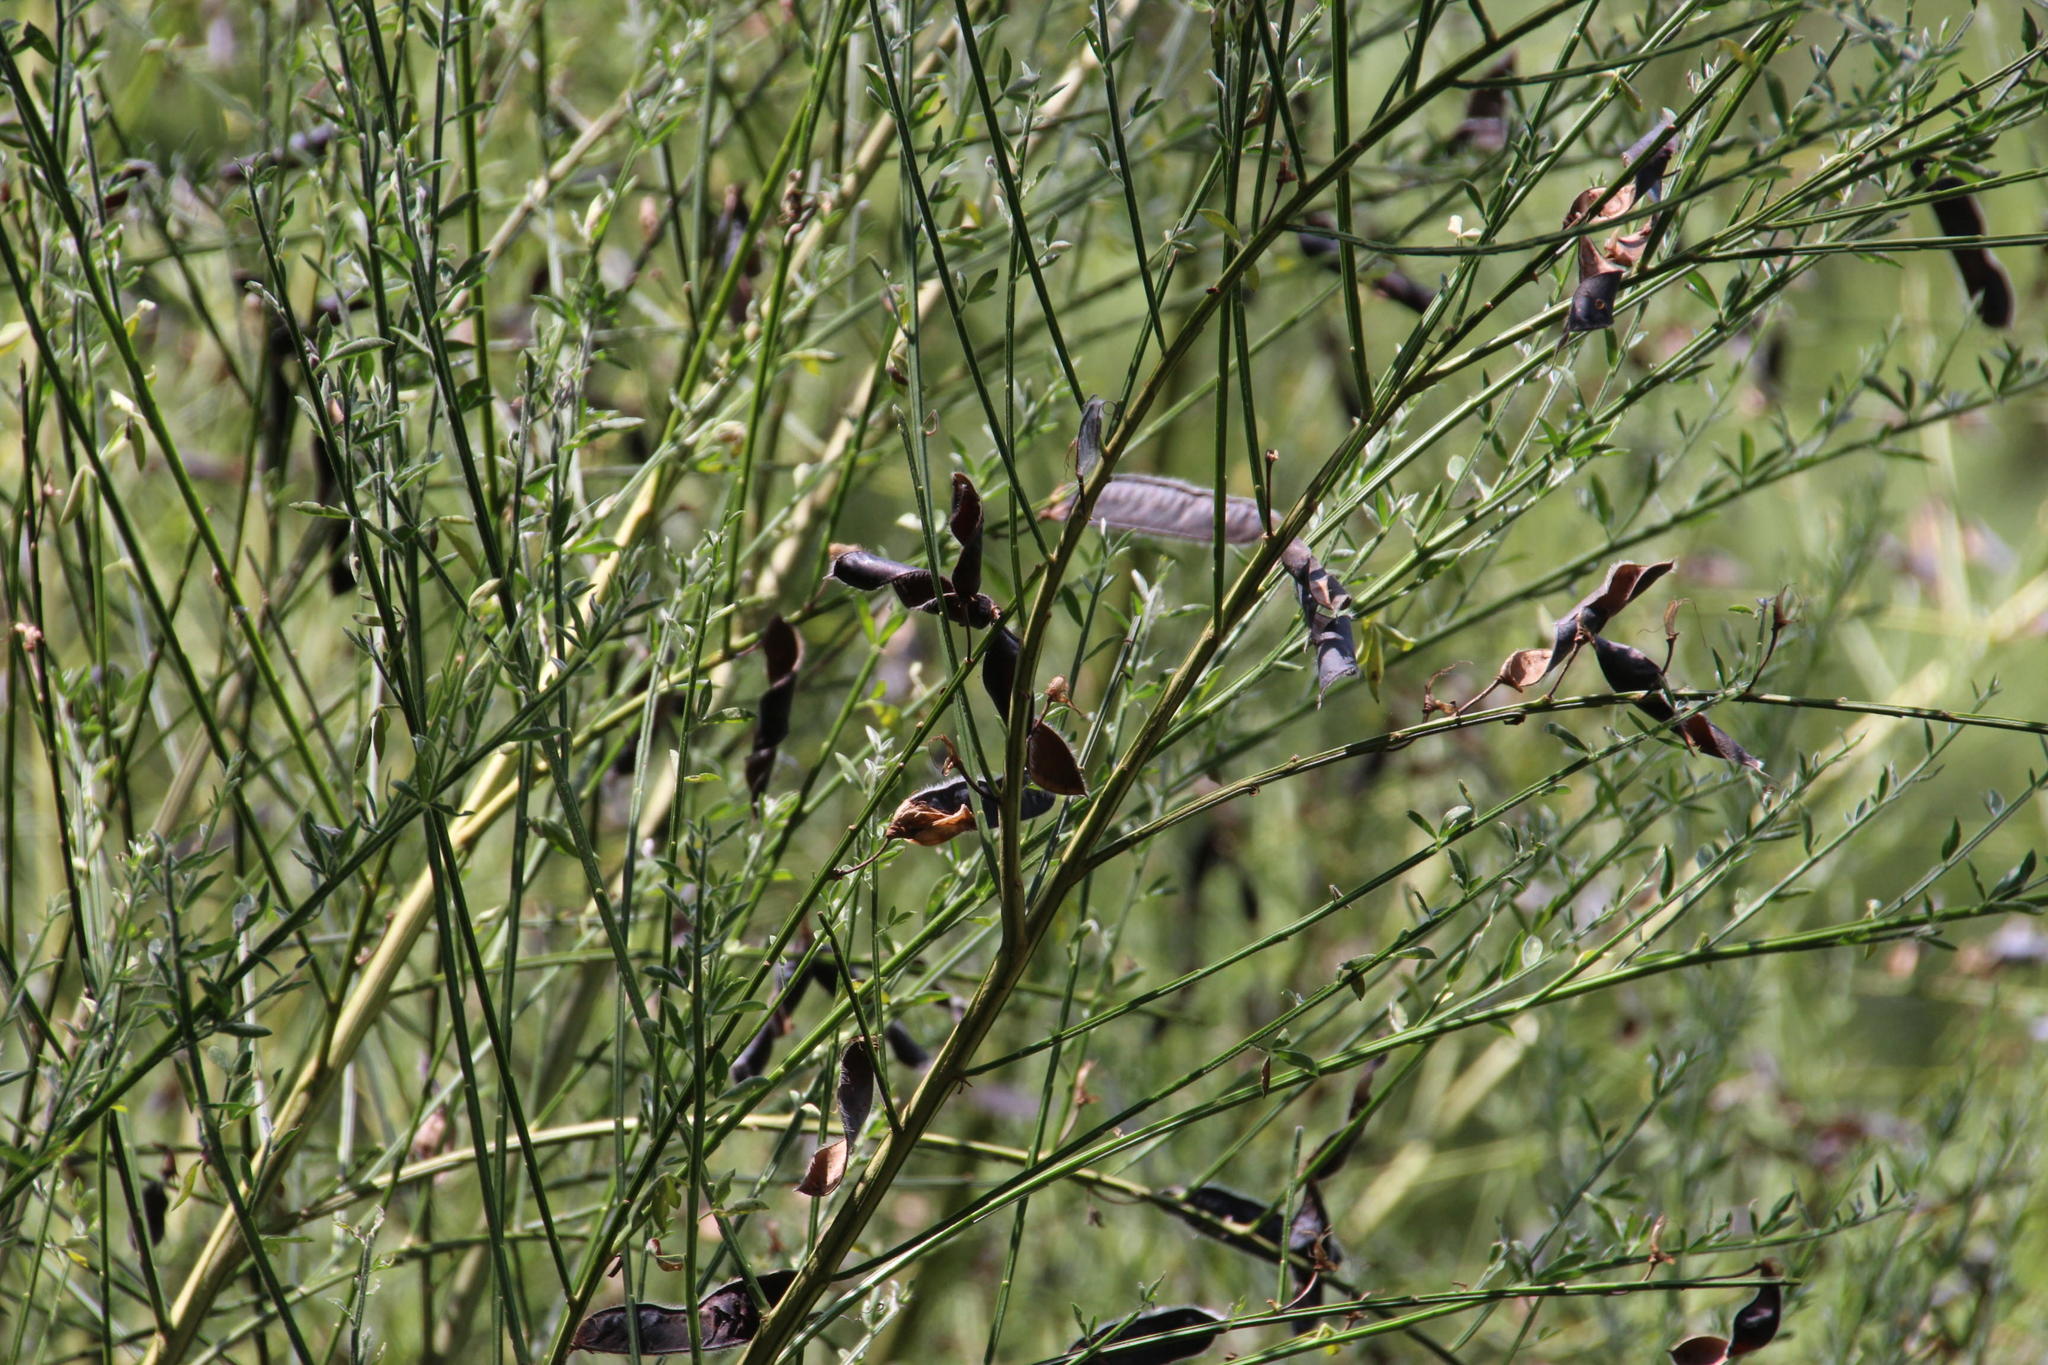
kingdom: Plantae
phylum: Tracheophyta
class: Magnoliopsida
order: Fabales
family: Fabaceae
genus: Cytisus
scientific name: Cytisus scoparius
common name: Scotch broom
